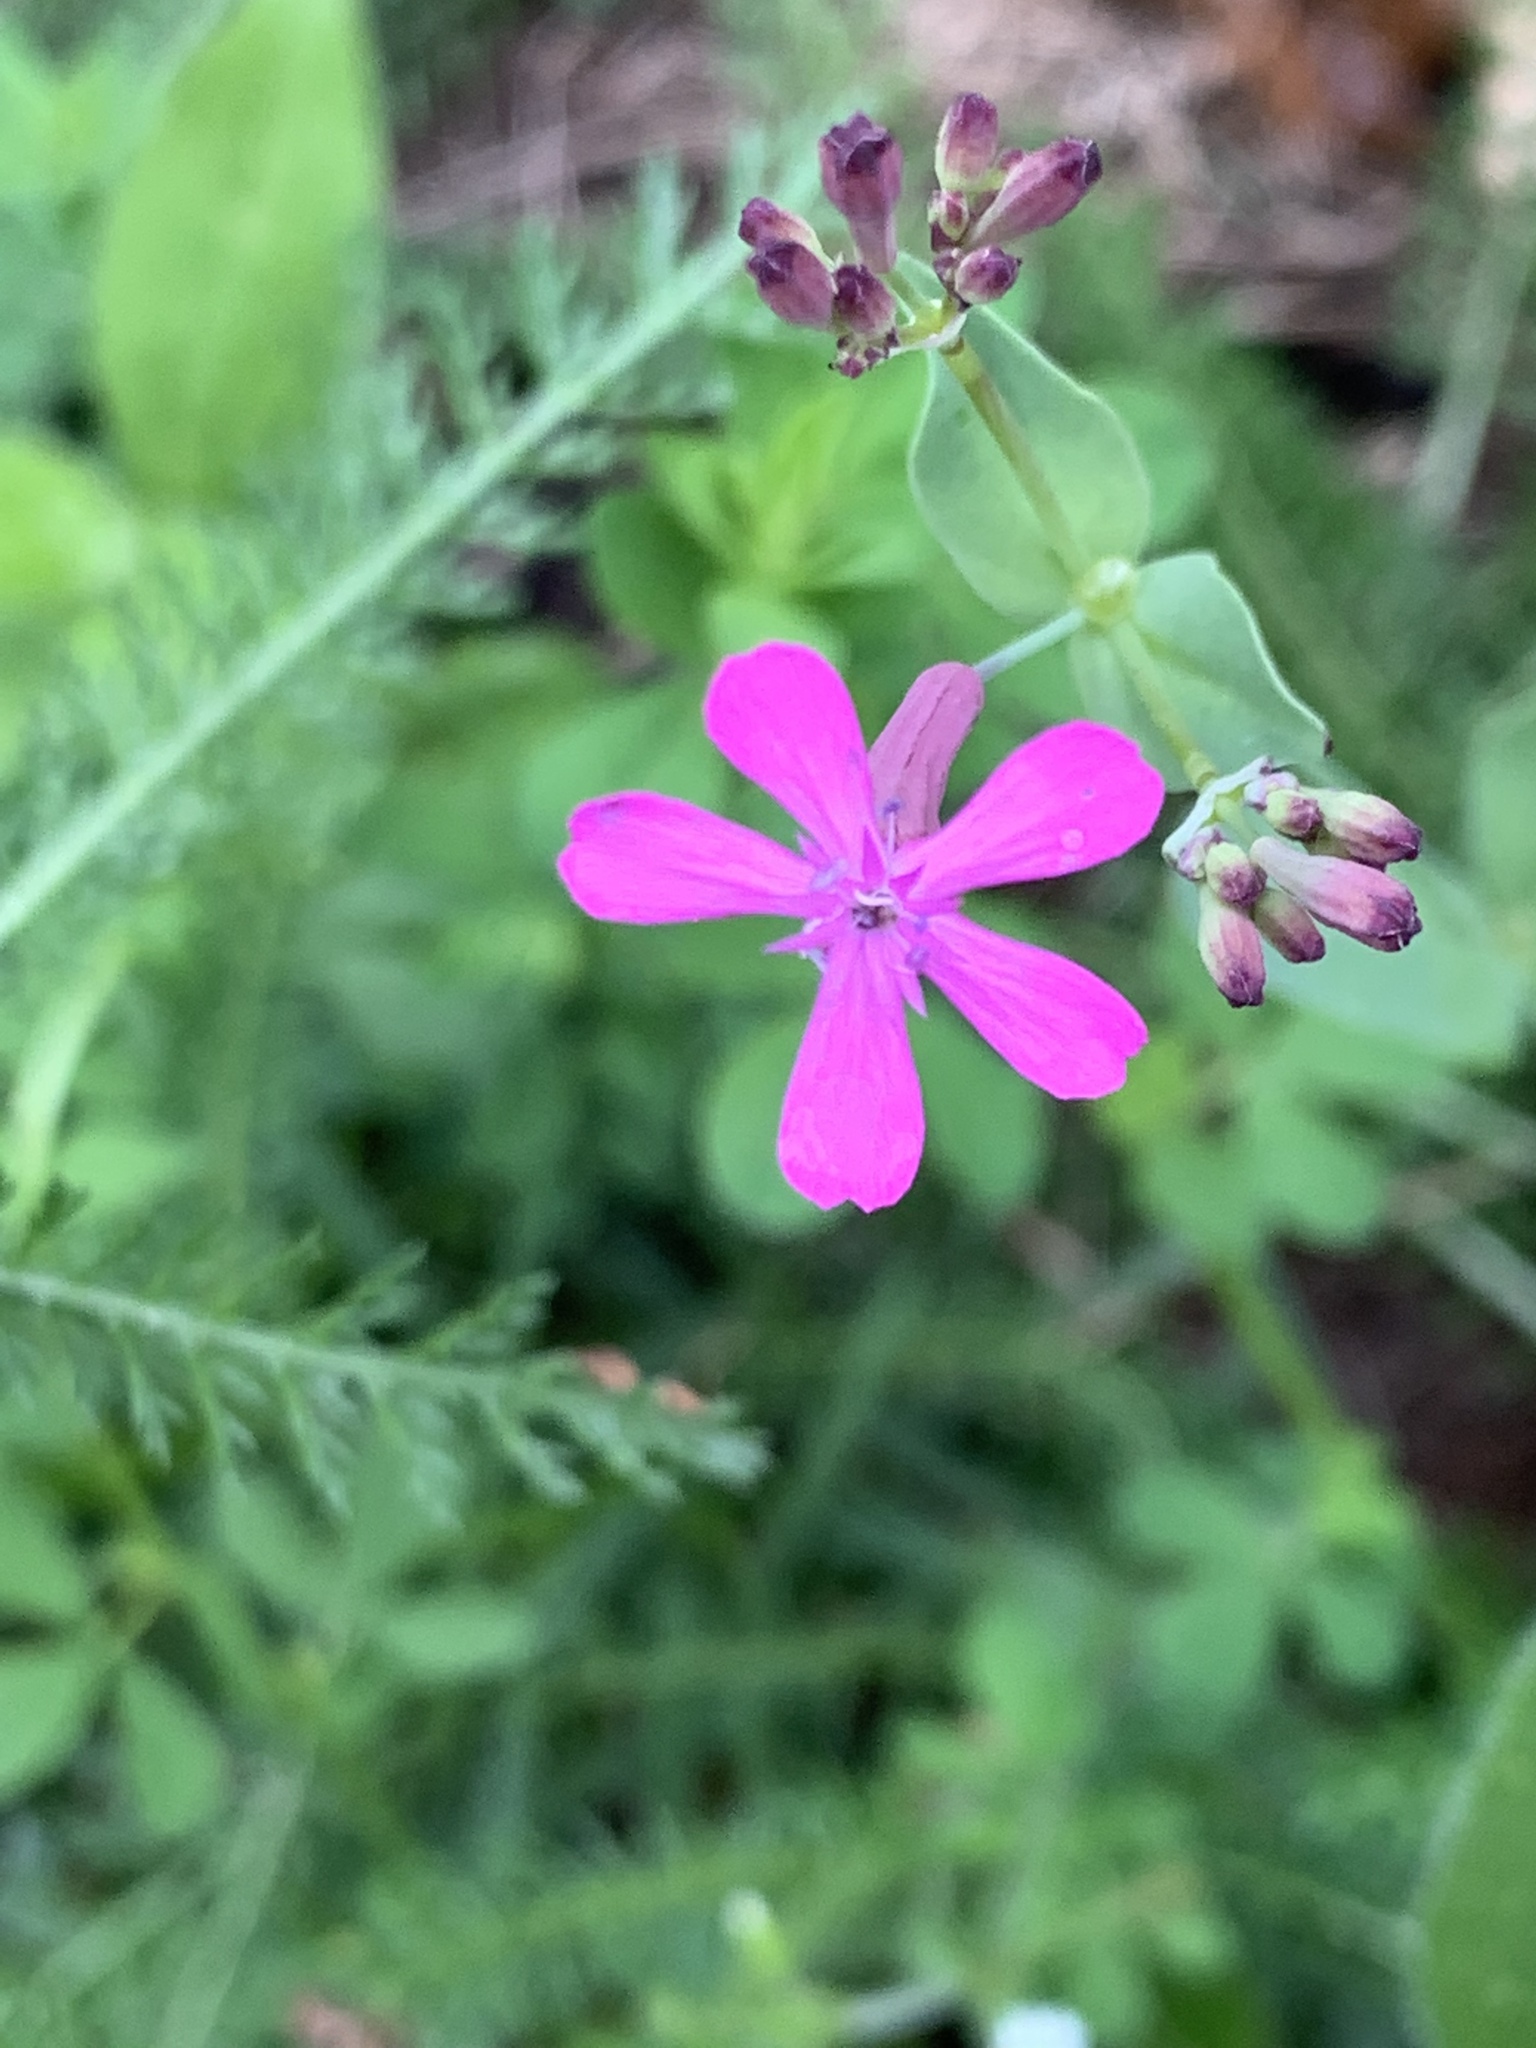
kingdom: Plantae
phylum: Tracheophyta
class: Magnoliopsida
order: Caryophyllales
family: Caryophyllaceae
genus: Atocion
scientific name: Atocion armeria
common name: Sweet william catchfly
